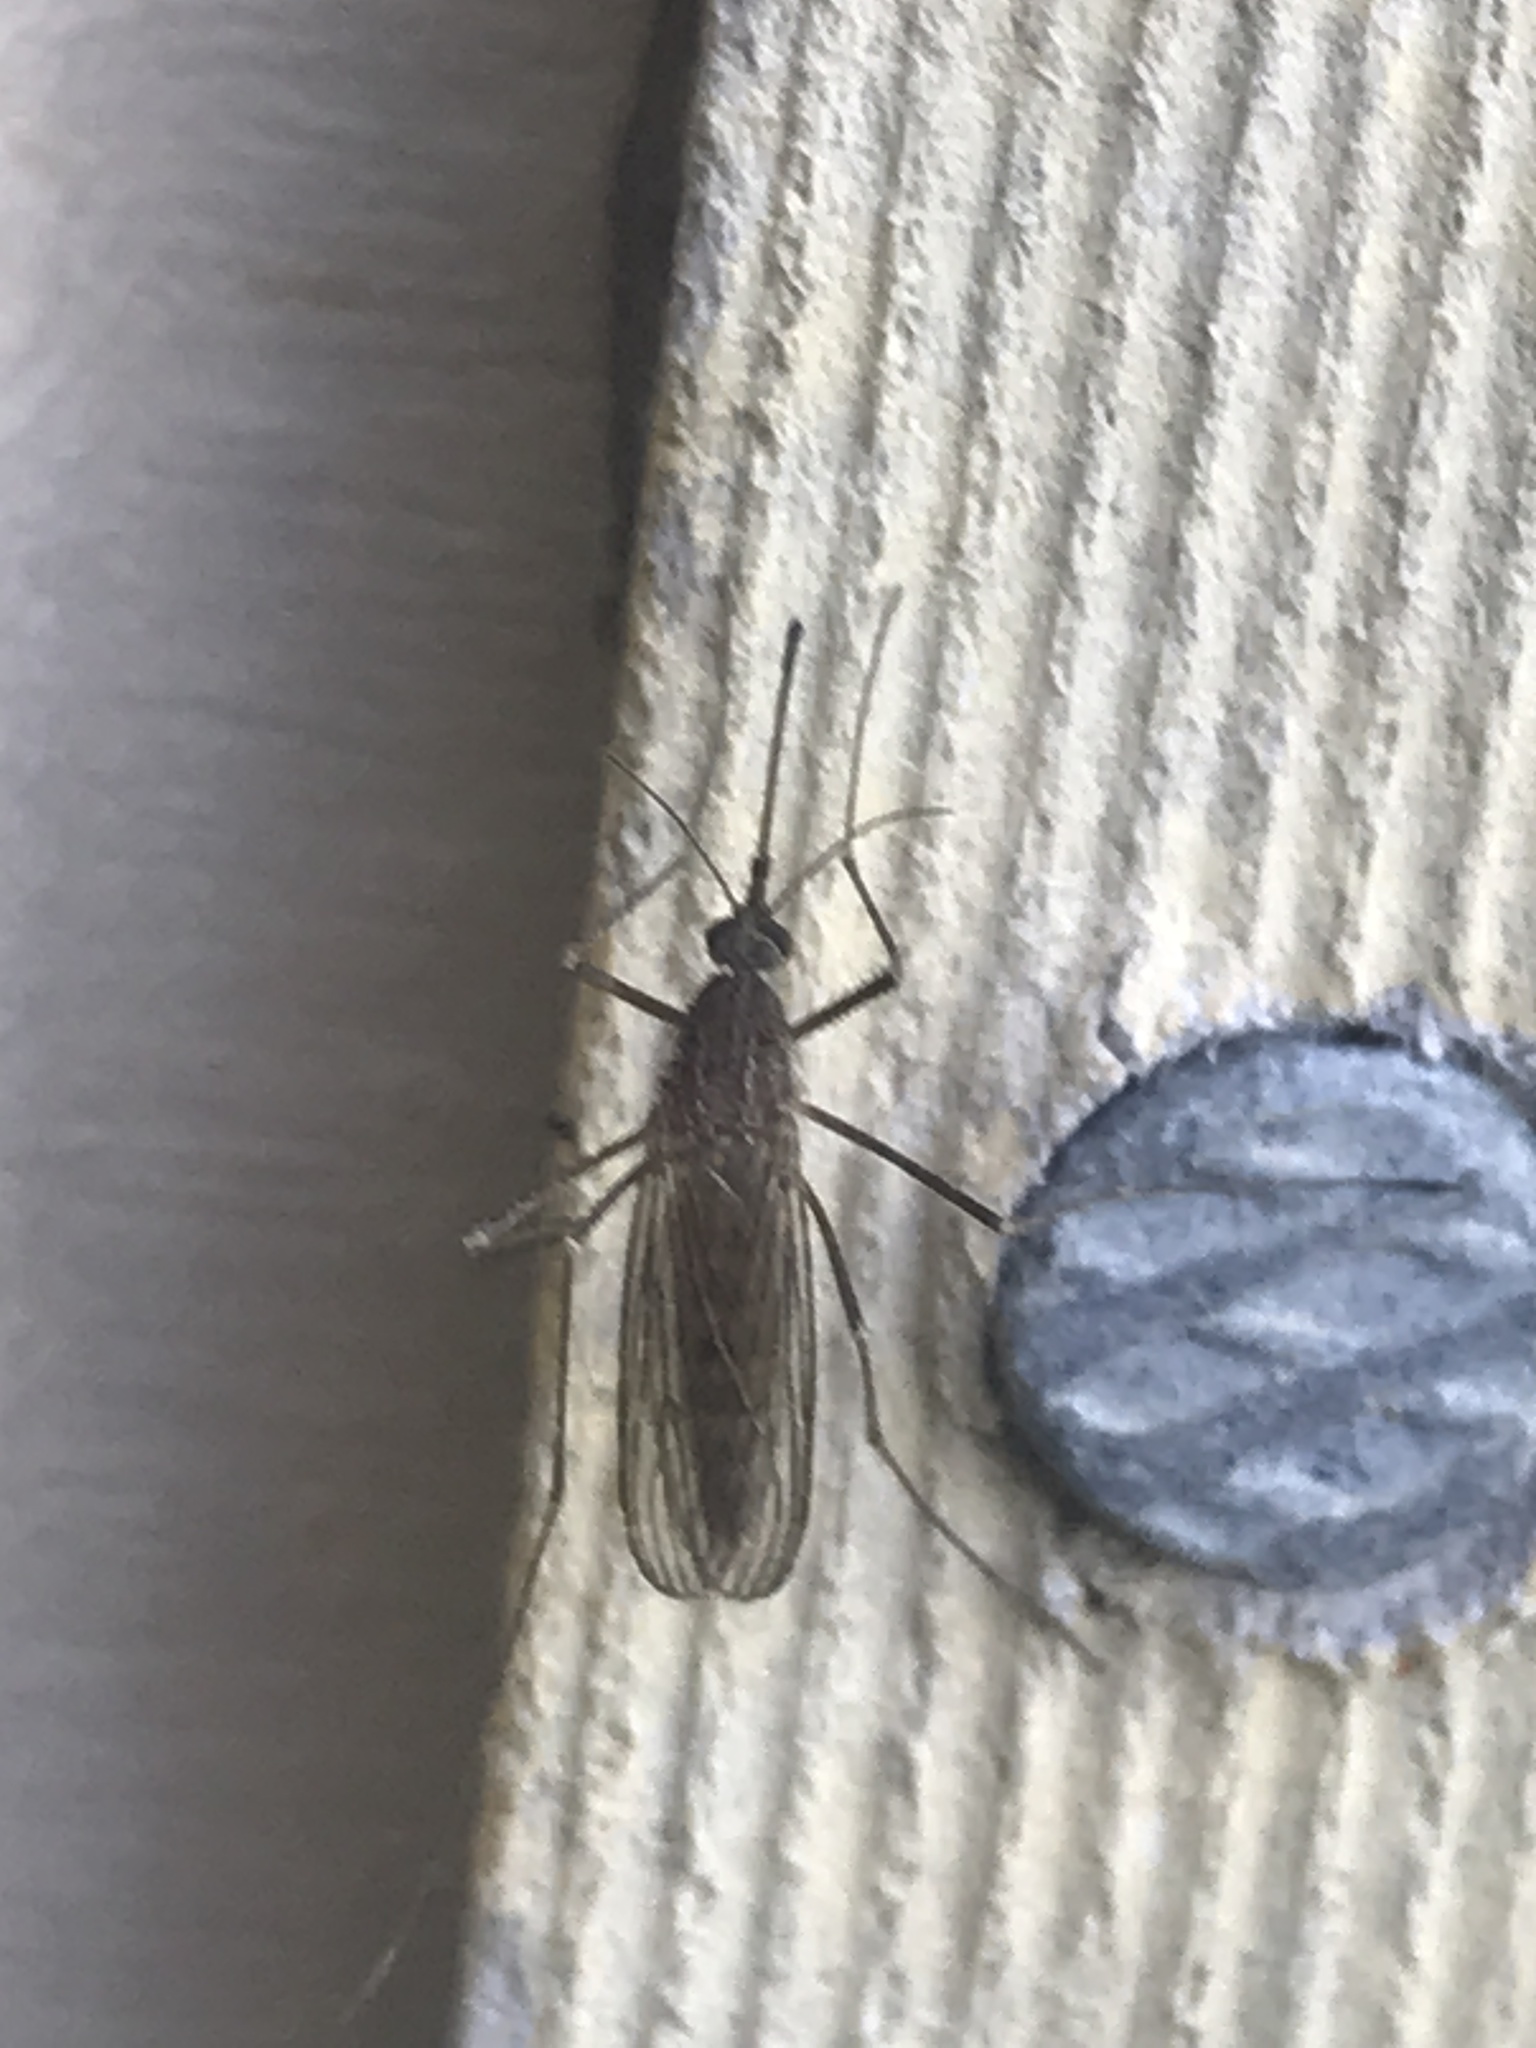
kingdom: Animalia
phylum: Arthropoda
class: Insecta
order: Diptera
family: Culicidae
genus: Culiseta
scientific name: Culiseta inornata
